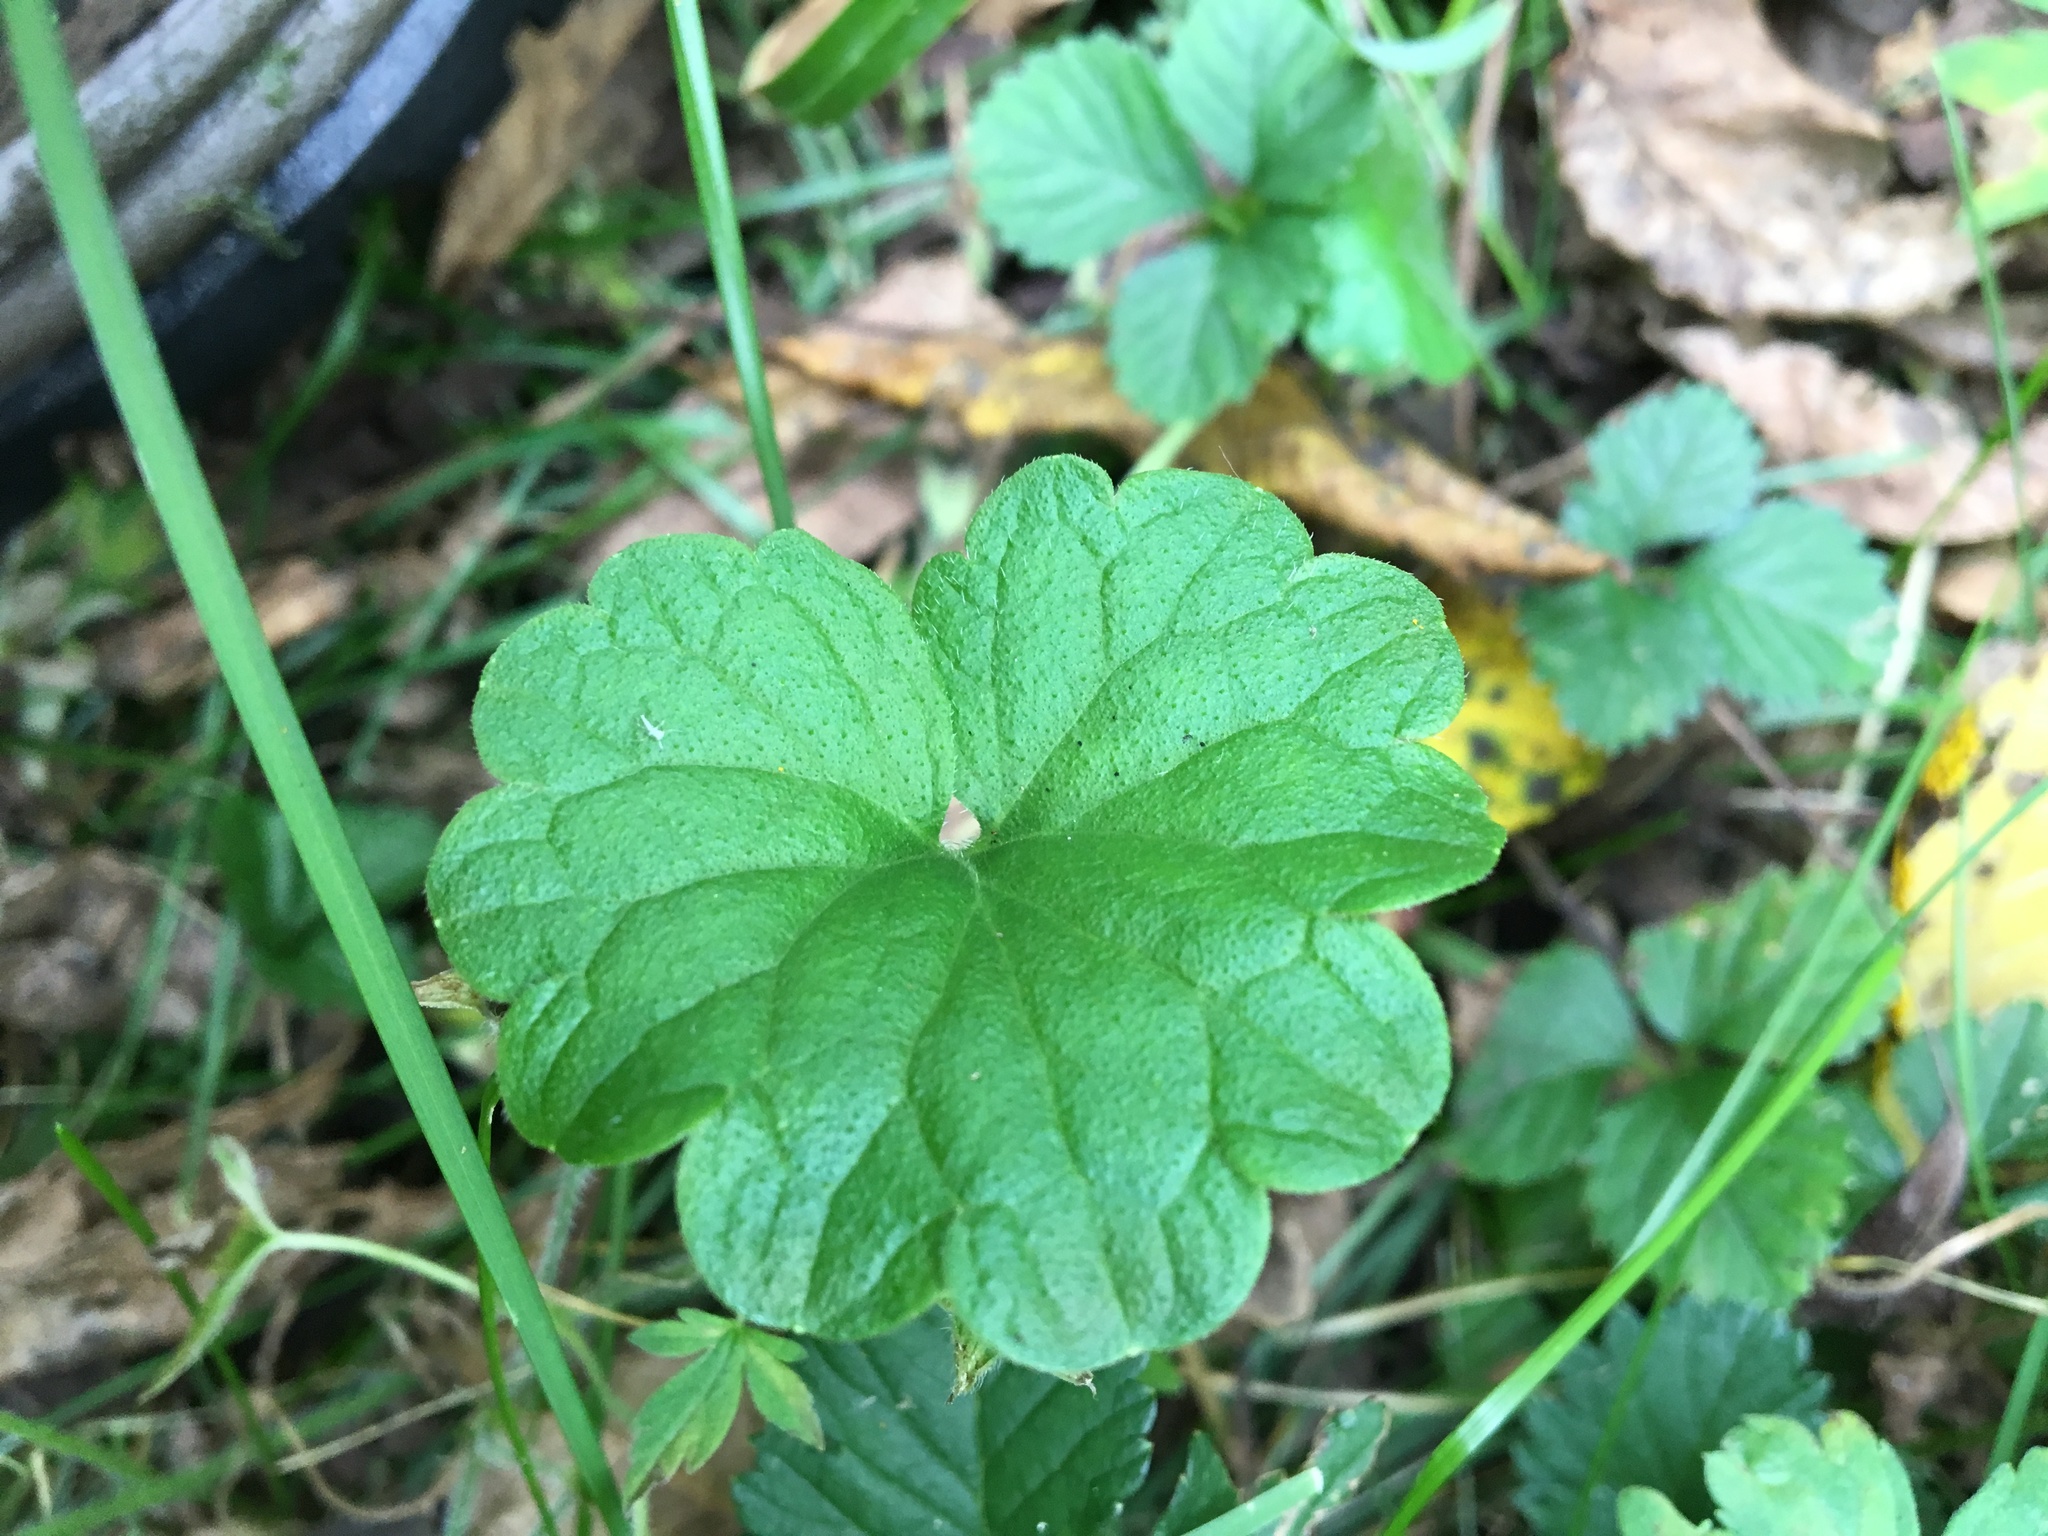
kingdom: Plantae
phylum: Tracheophyta
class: Magnoliopsida
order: Lamiales
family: Lamiaceae
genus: Glechoma
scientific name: Glechoma hederacea
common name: Ground ivy
